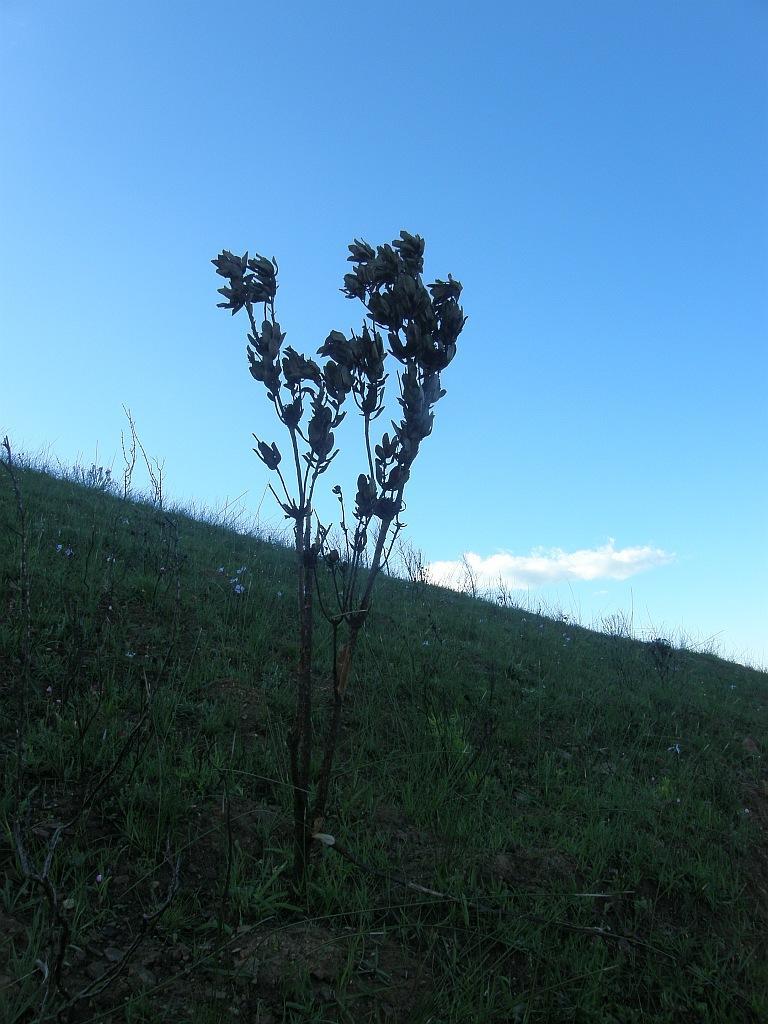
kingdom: Plantae
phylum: Tracheophyta
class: Magnoliopsida
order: Proteales
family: Proteaceae
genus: Leucadendron
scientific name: Leucadendron elimense
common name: Elim conebush
